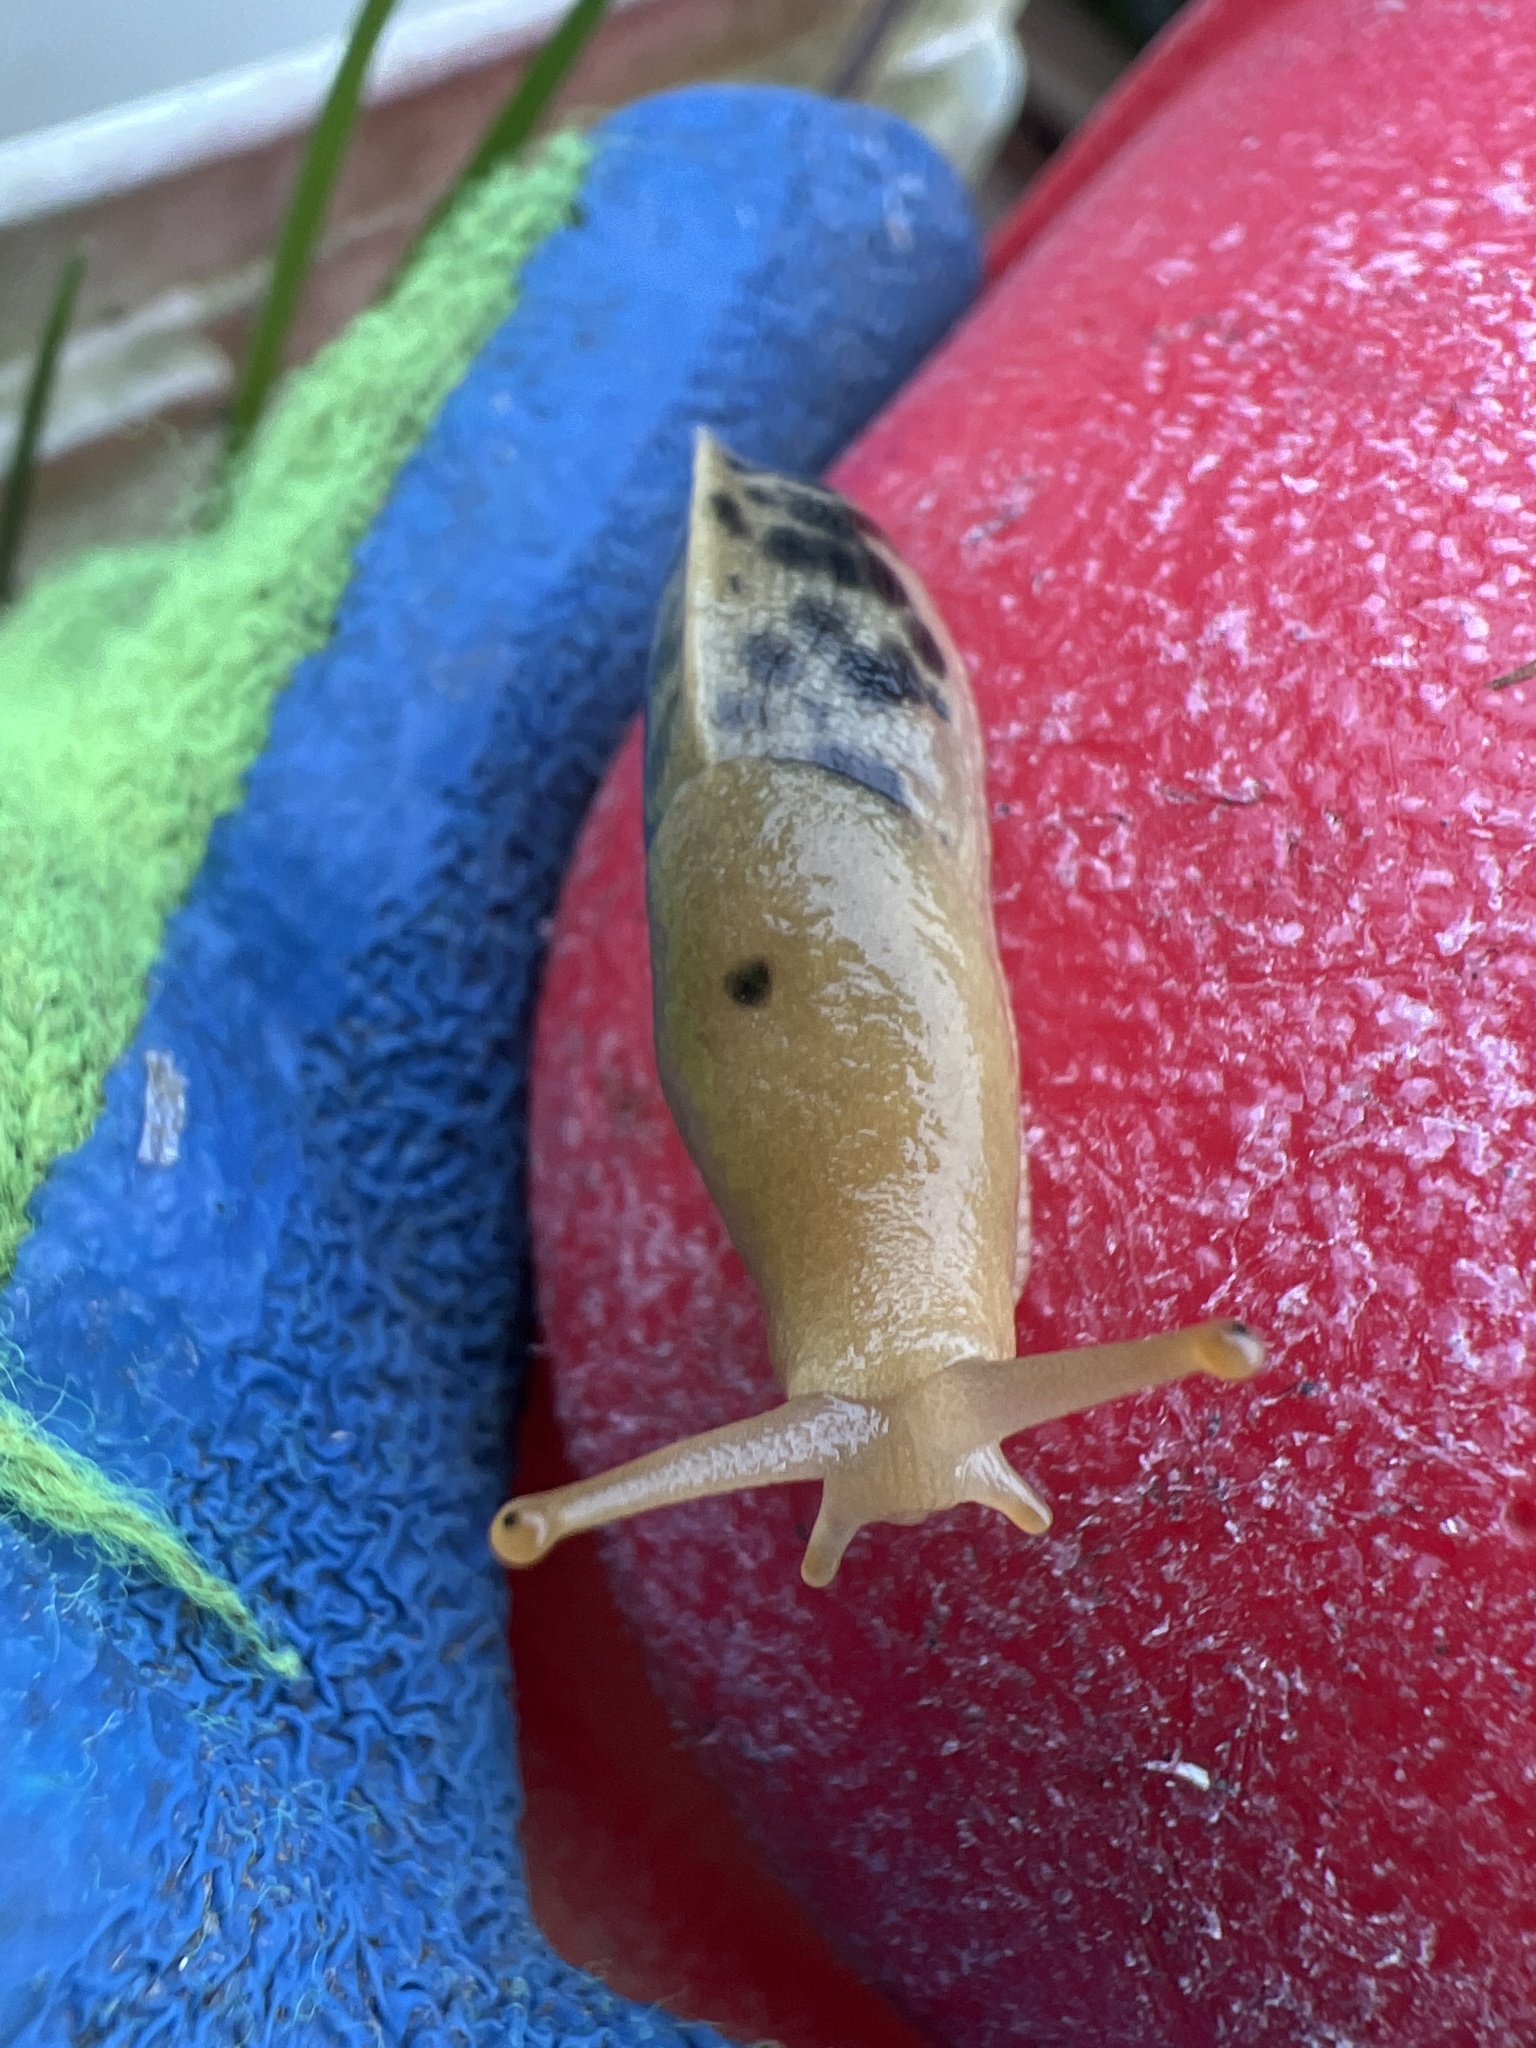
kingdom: Animalia
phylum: Mollusca
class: Gastropoda
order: Stylommatophora
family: Ariolimacidae
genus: Ariolimax
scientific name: Ariolimax columbianus
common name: Pacific banana slug
